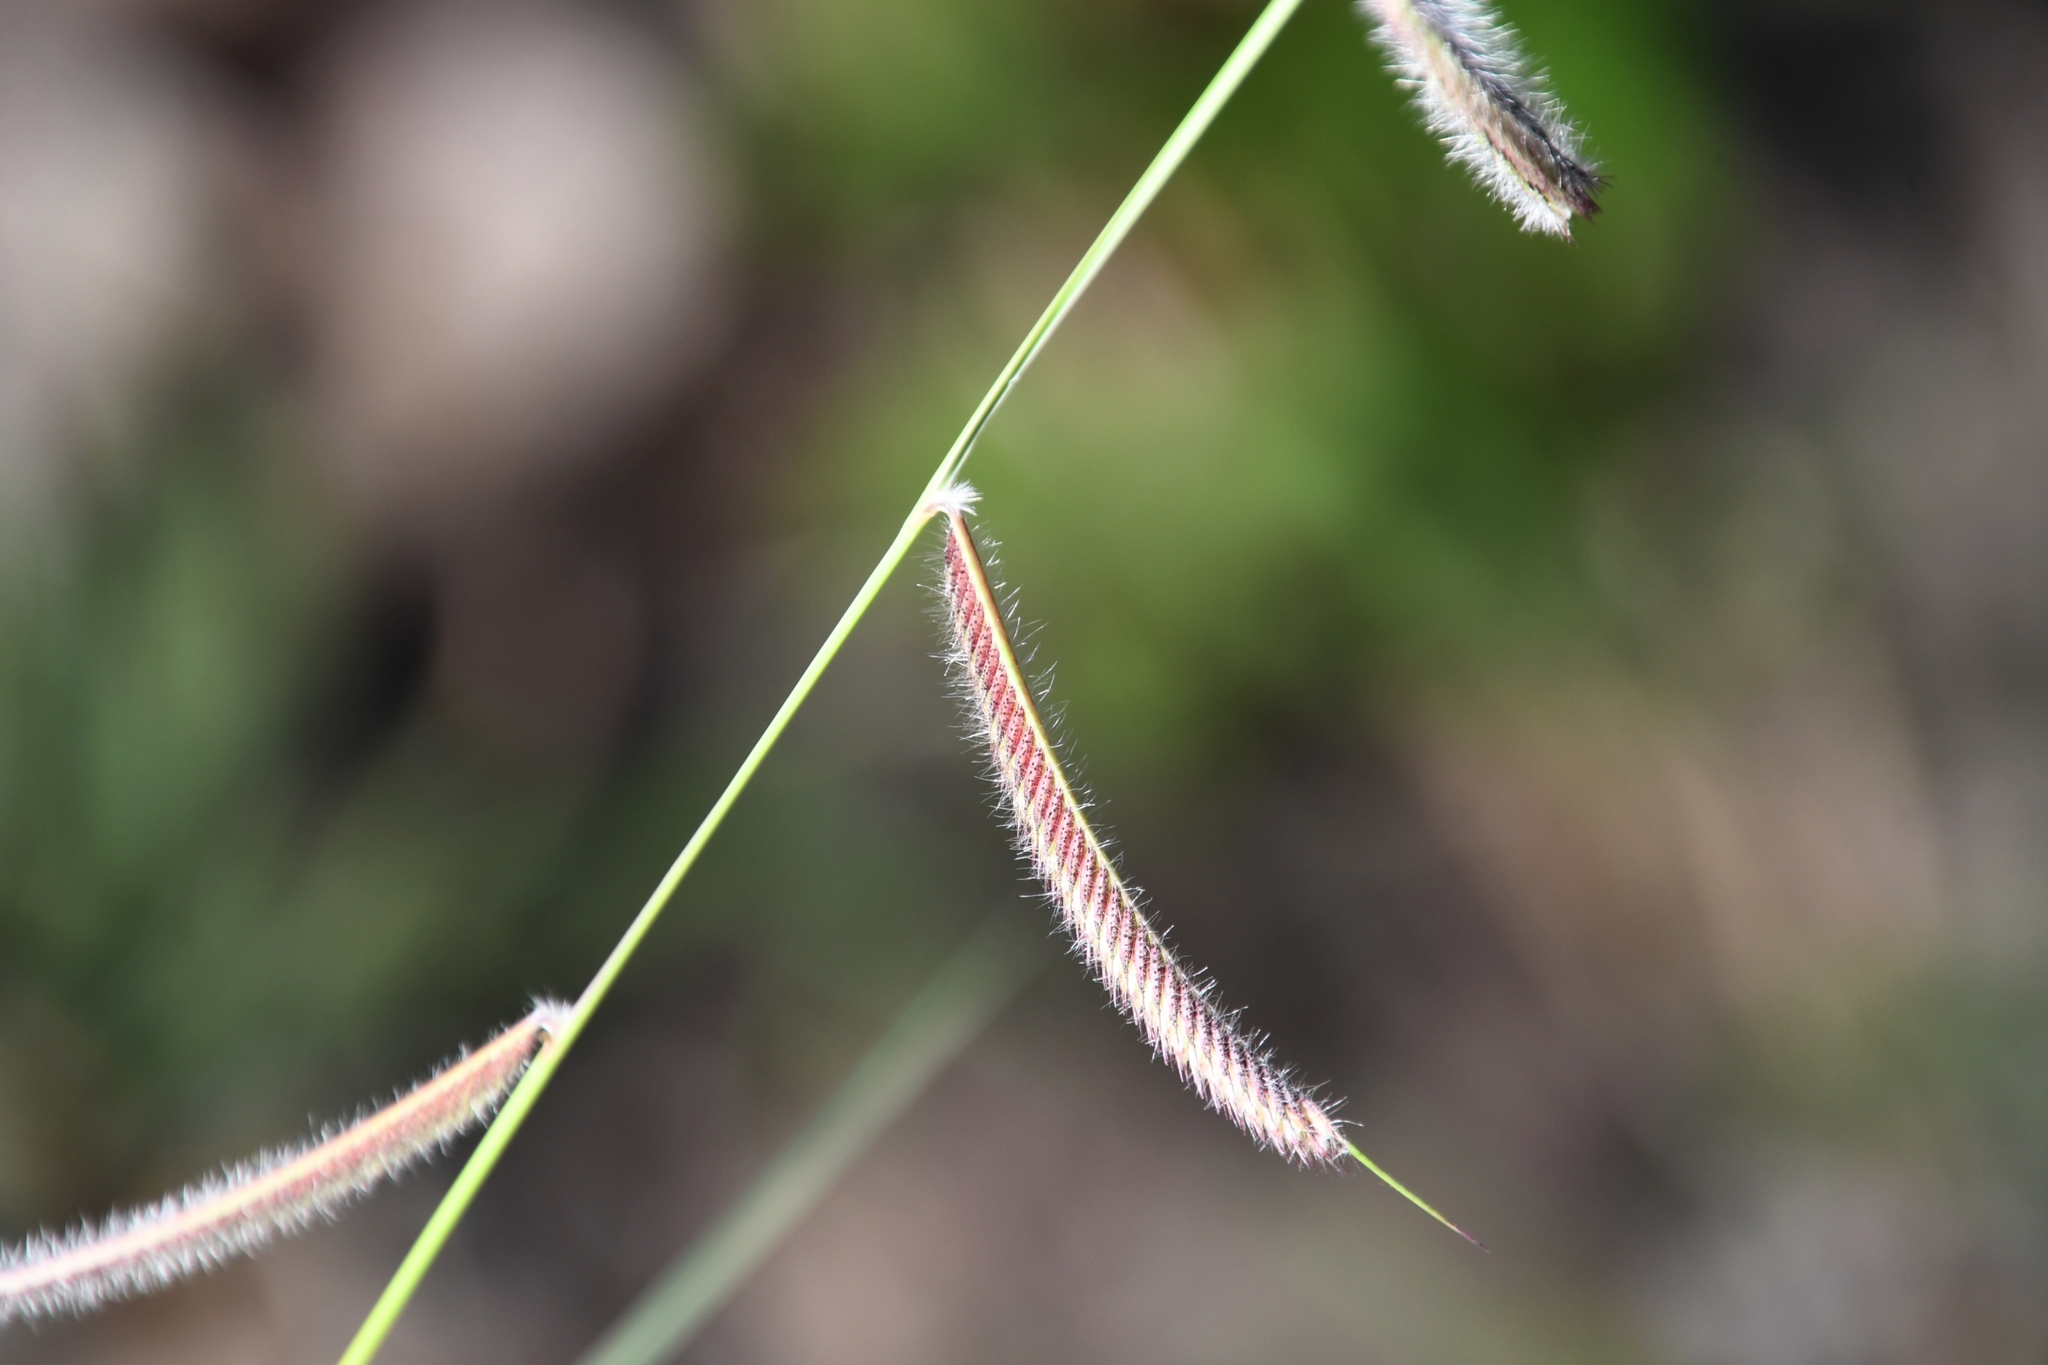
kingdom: Plantae
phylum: Tracheophyta
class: Liliopsida
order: Poales
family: Poaceae
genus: Bouteloua
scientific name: Bouteloua hirsuta
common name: Hairy grama
